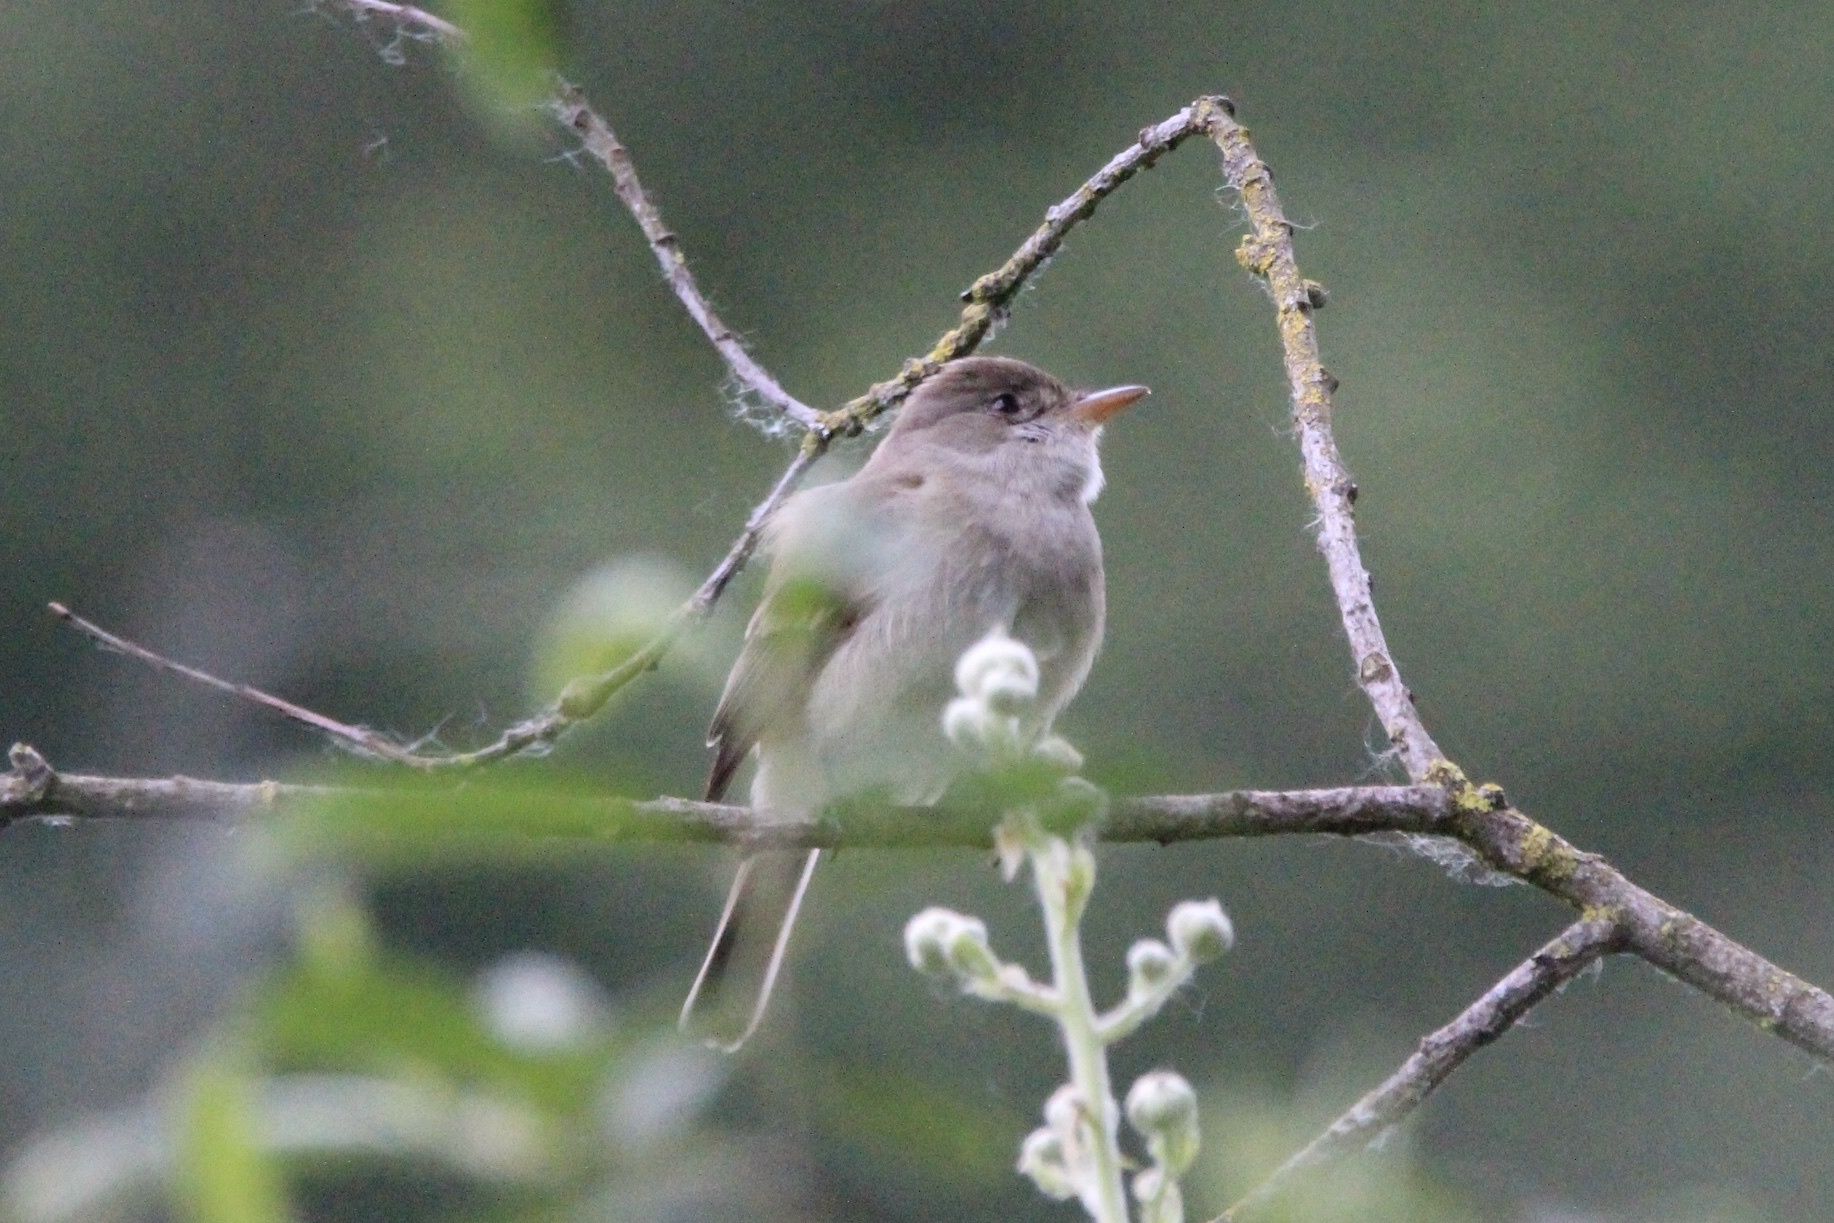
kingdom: Animalia
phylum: Chordata
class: Aves
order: Passeriformes
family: Tyrannidae
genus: Empidonax
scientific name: Empidonax traillii
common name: Willow flycatcher
